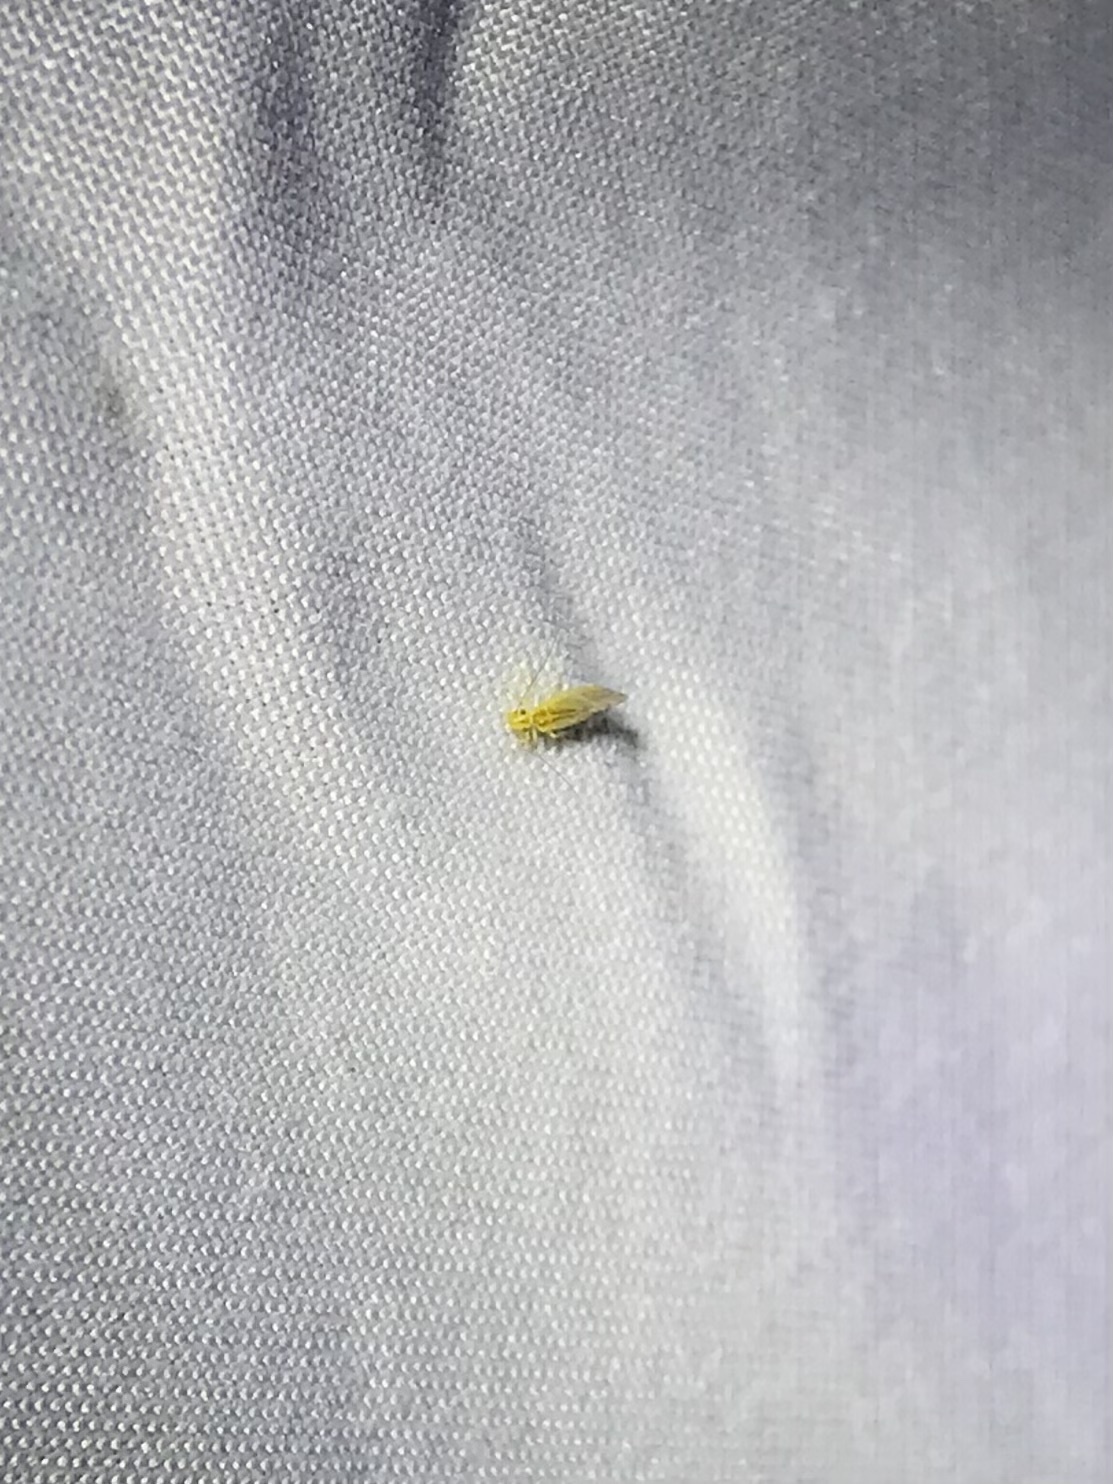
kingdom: Animalia
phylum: Arthropoda
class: Insecta
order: Psocodea
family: Caeciliusidae
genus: Valenzuela
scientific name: Valenzuela flavidus
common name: Yellow barklouse
